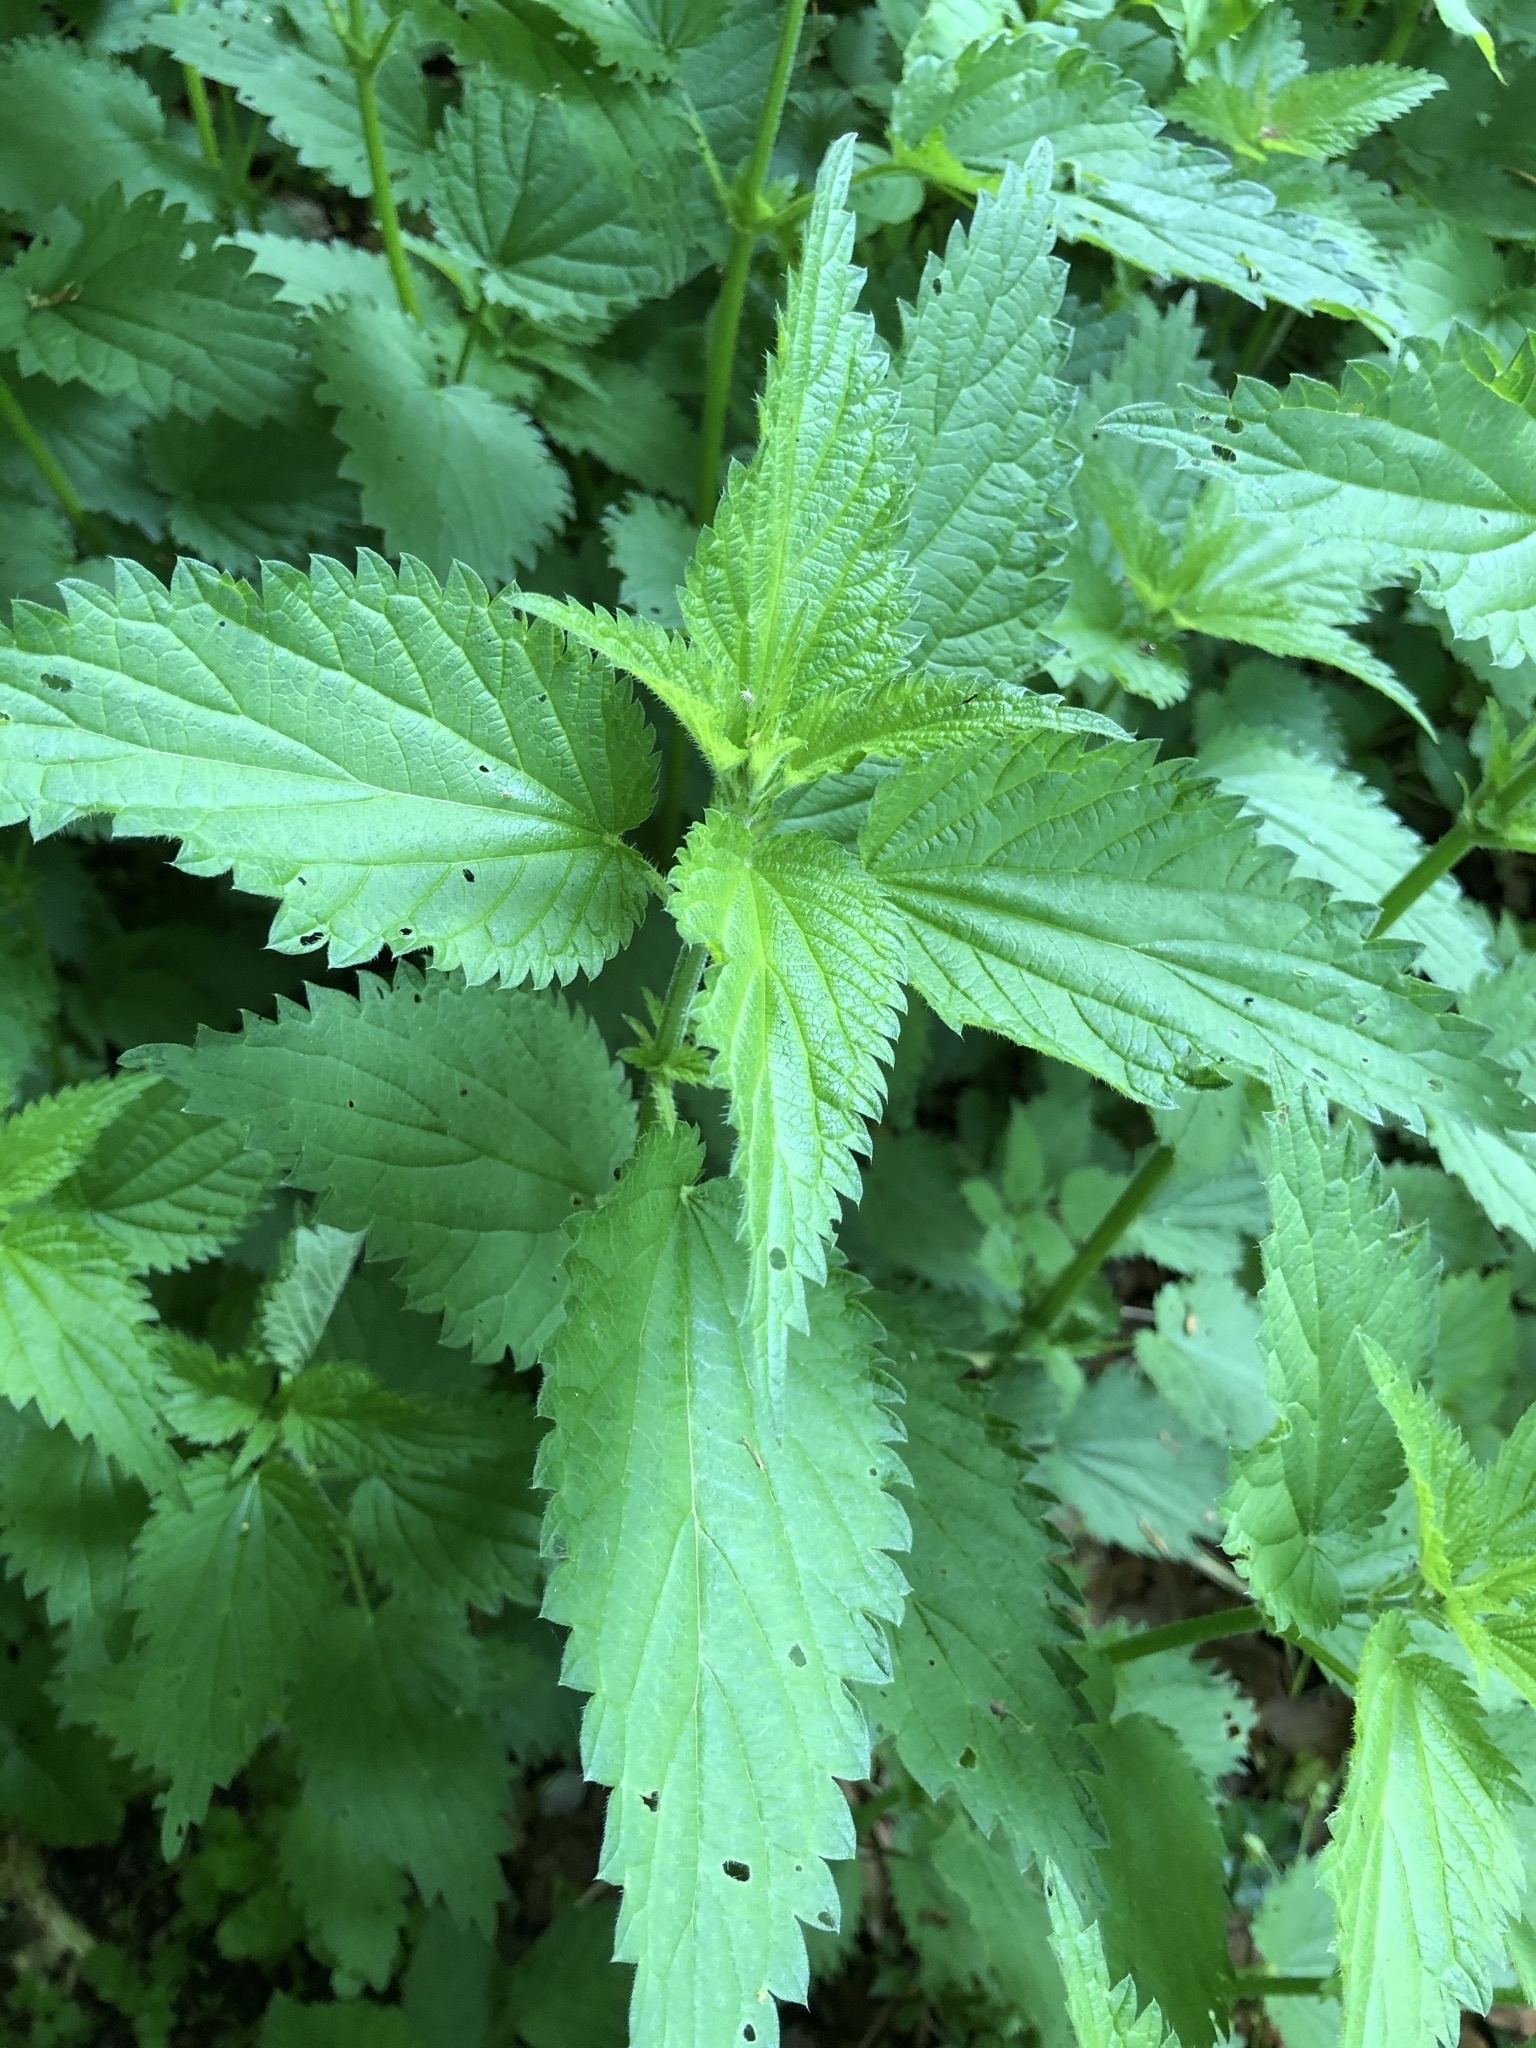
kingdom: Plantae
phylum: Tracheophyta
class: Magnoliopsida
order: Rosales
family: Urticaceae
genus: Urtica
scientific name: Urtica dioica
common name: Common nettle
